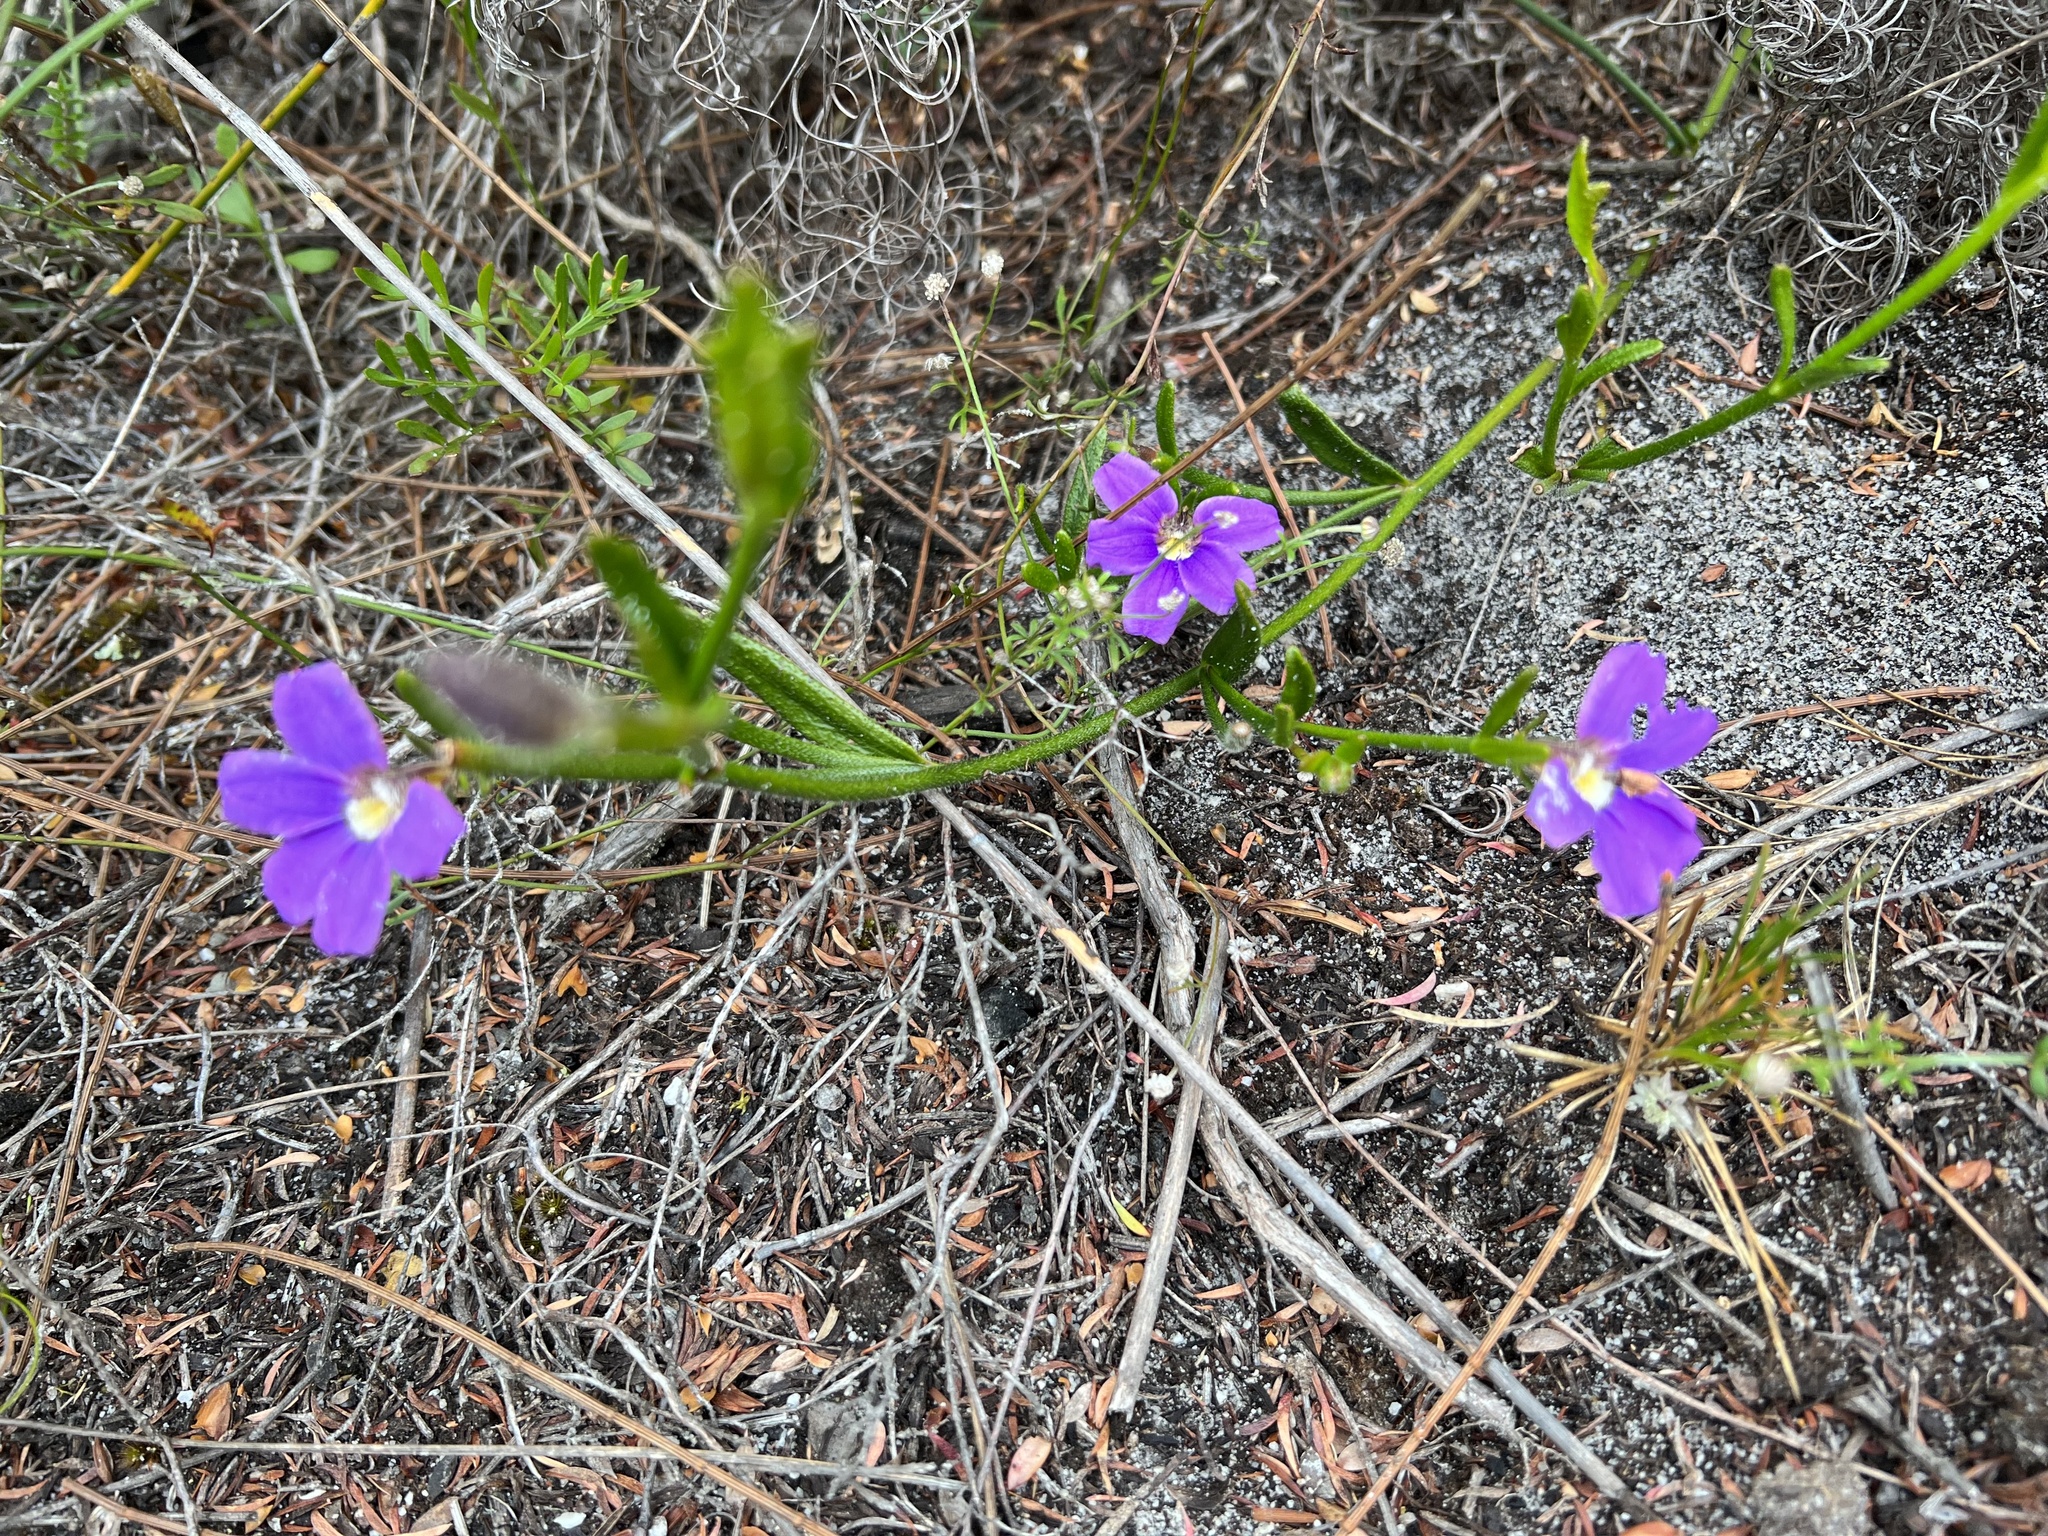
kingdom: Plantae
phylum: Tracheophyta
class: Magnoliopsida
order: Asterales
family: Goodeniaceae
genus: Scaevola
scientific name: Scaevola ramosissima
